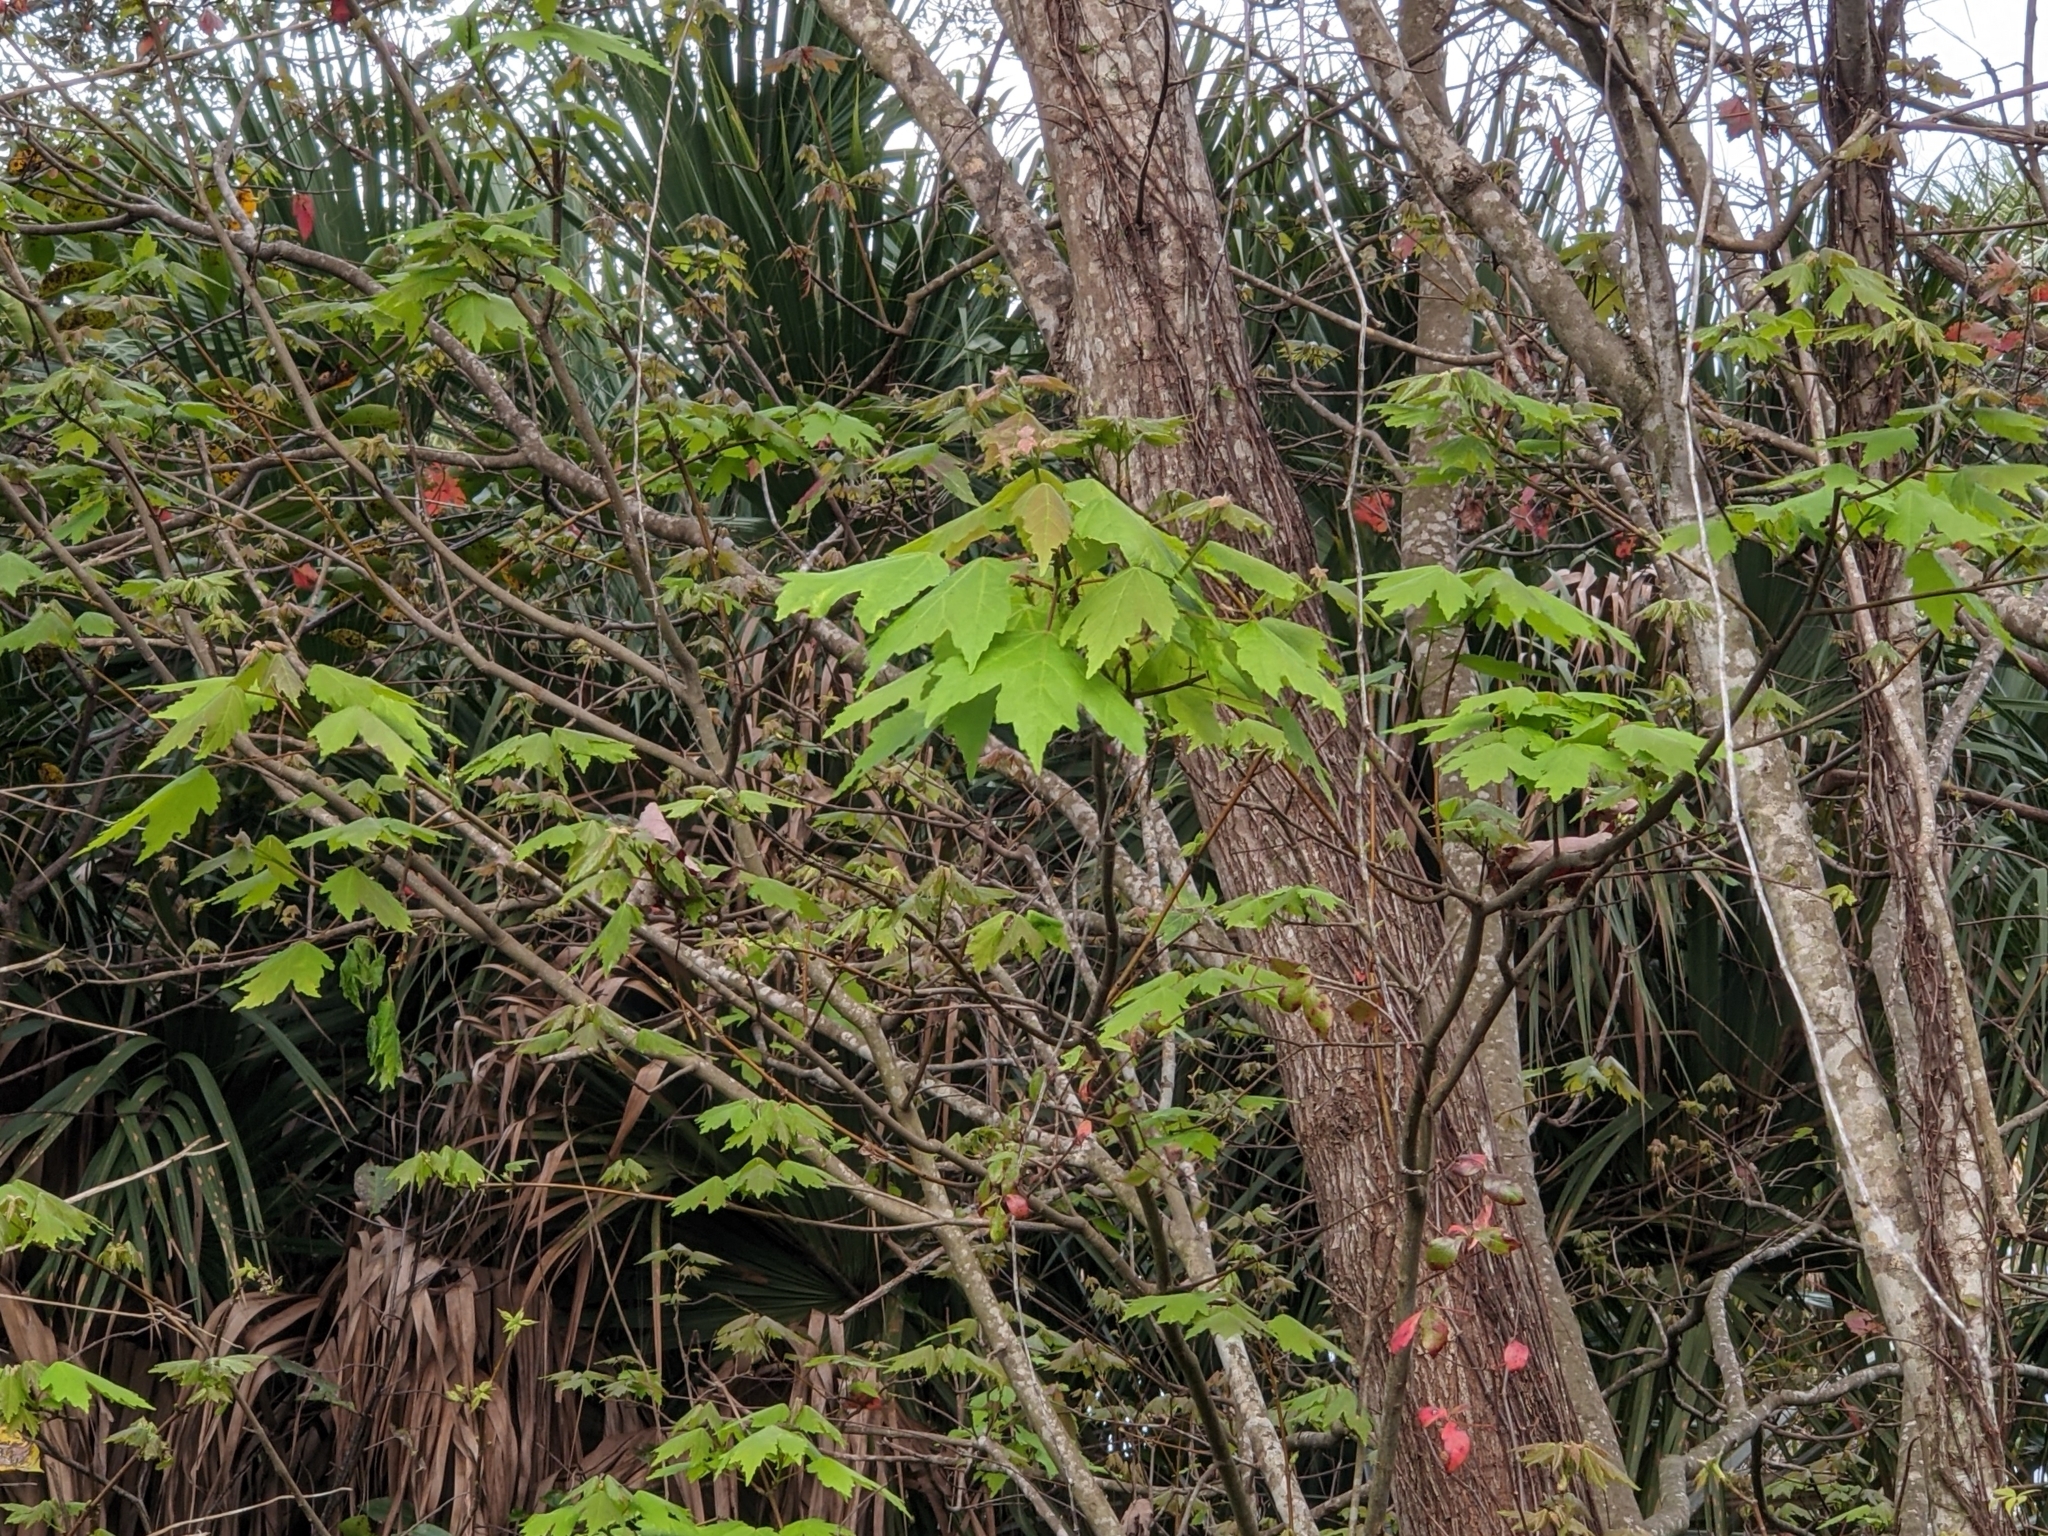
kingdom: Plantae
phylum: Tracheophyta
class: Magnoliopsida
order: Sapindales
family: Sapindaceae
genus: Acer
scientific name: Acer rubrum
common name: Red maple
